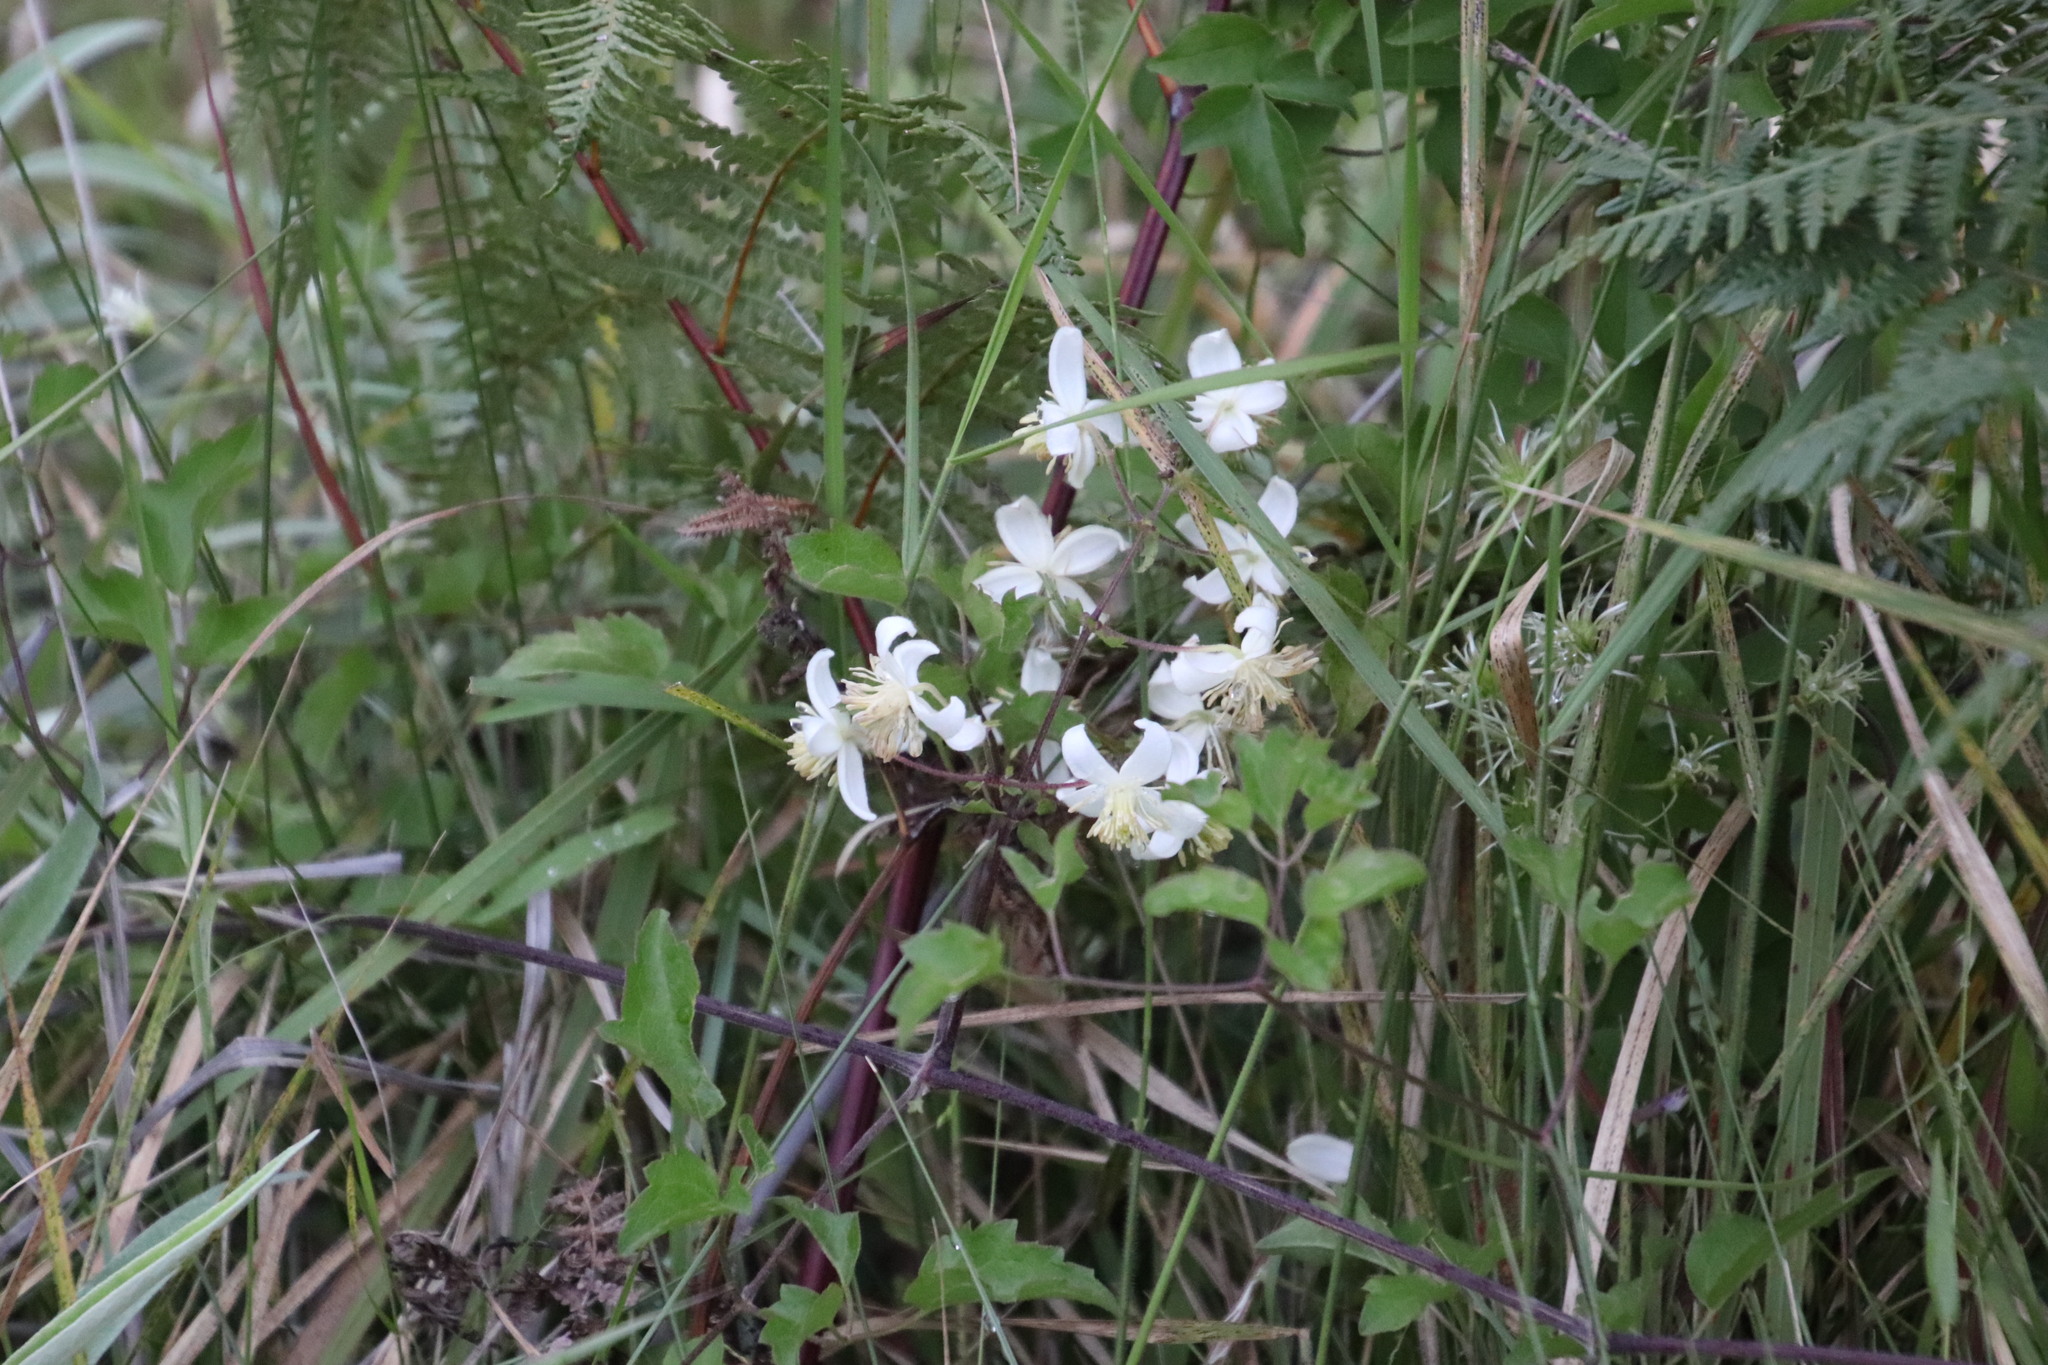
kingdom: Plantae
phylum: Tracheophyta
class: Magnoliopsida
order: Ranunculales
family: Ranunculaceae
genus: Clematis
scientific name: Clematis brachiata
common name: Traveler's-joy
